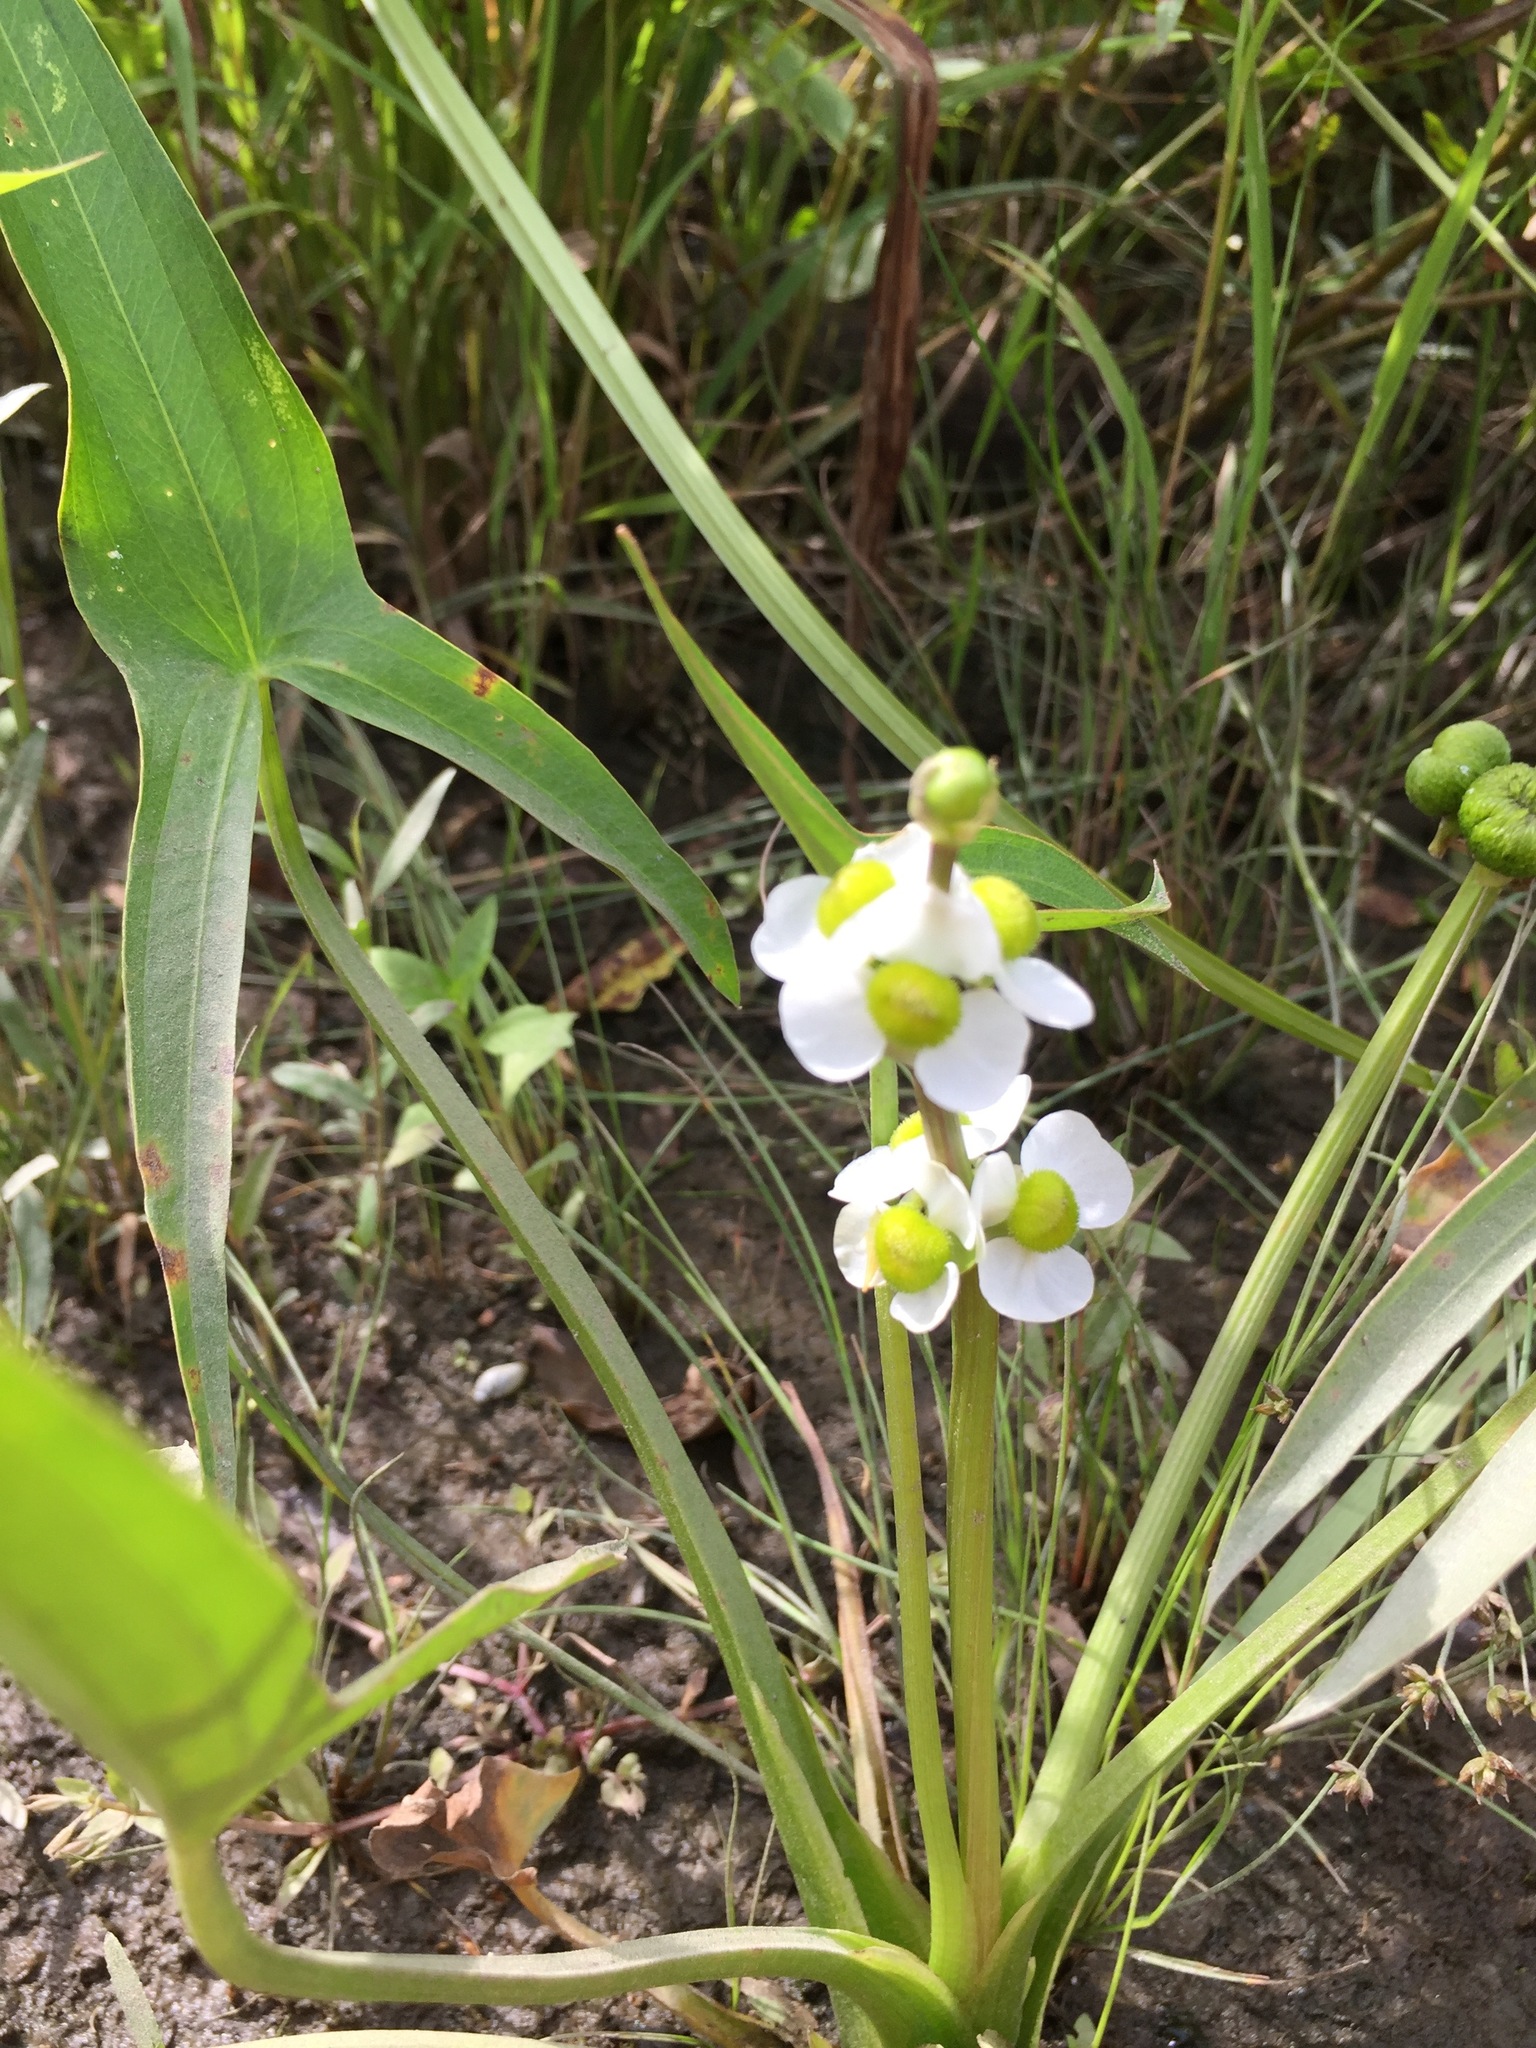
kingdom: Plantae
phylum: Tracheophyta
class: Liliopsida
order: Alismatales
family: Alismataceae
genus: Sagittaria
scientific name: Sagittaria latifolia
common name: Duck-potato
